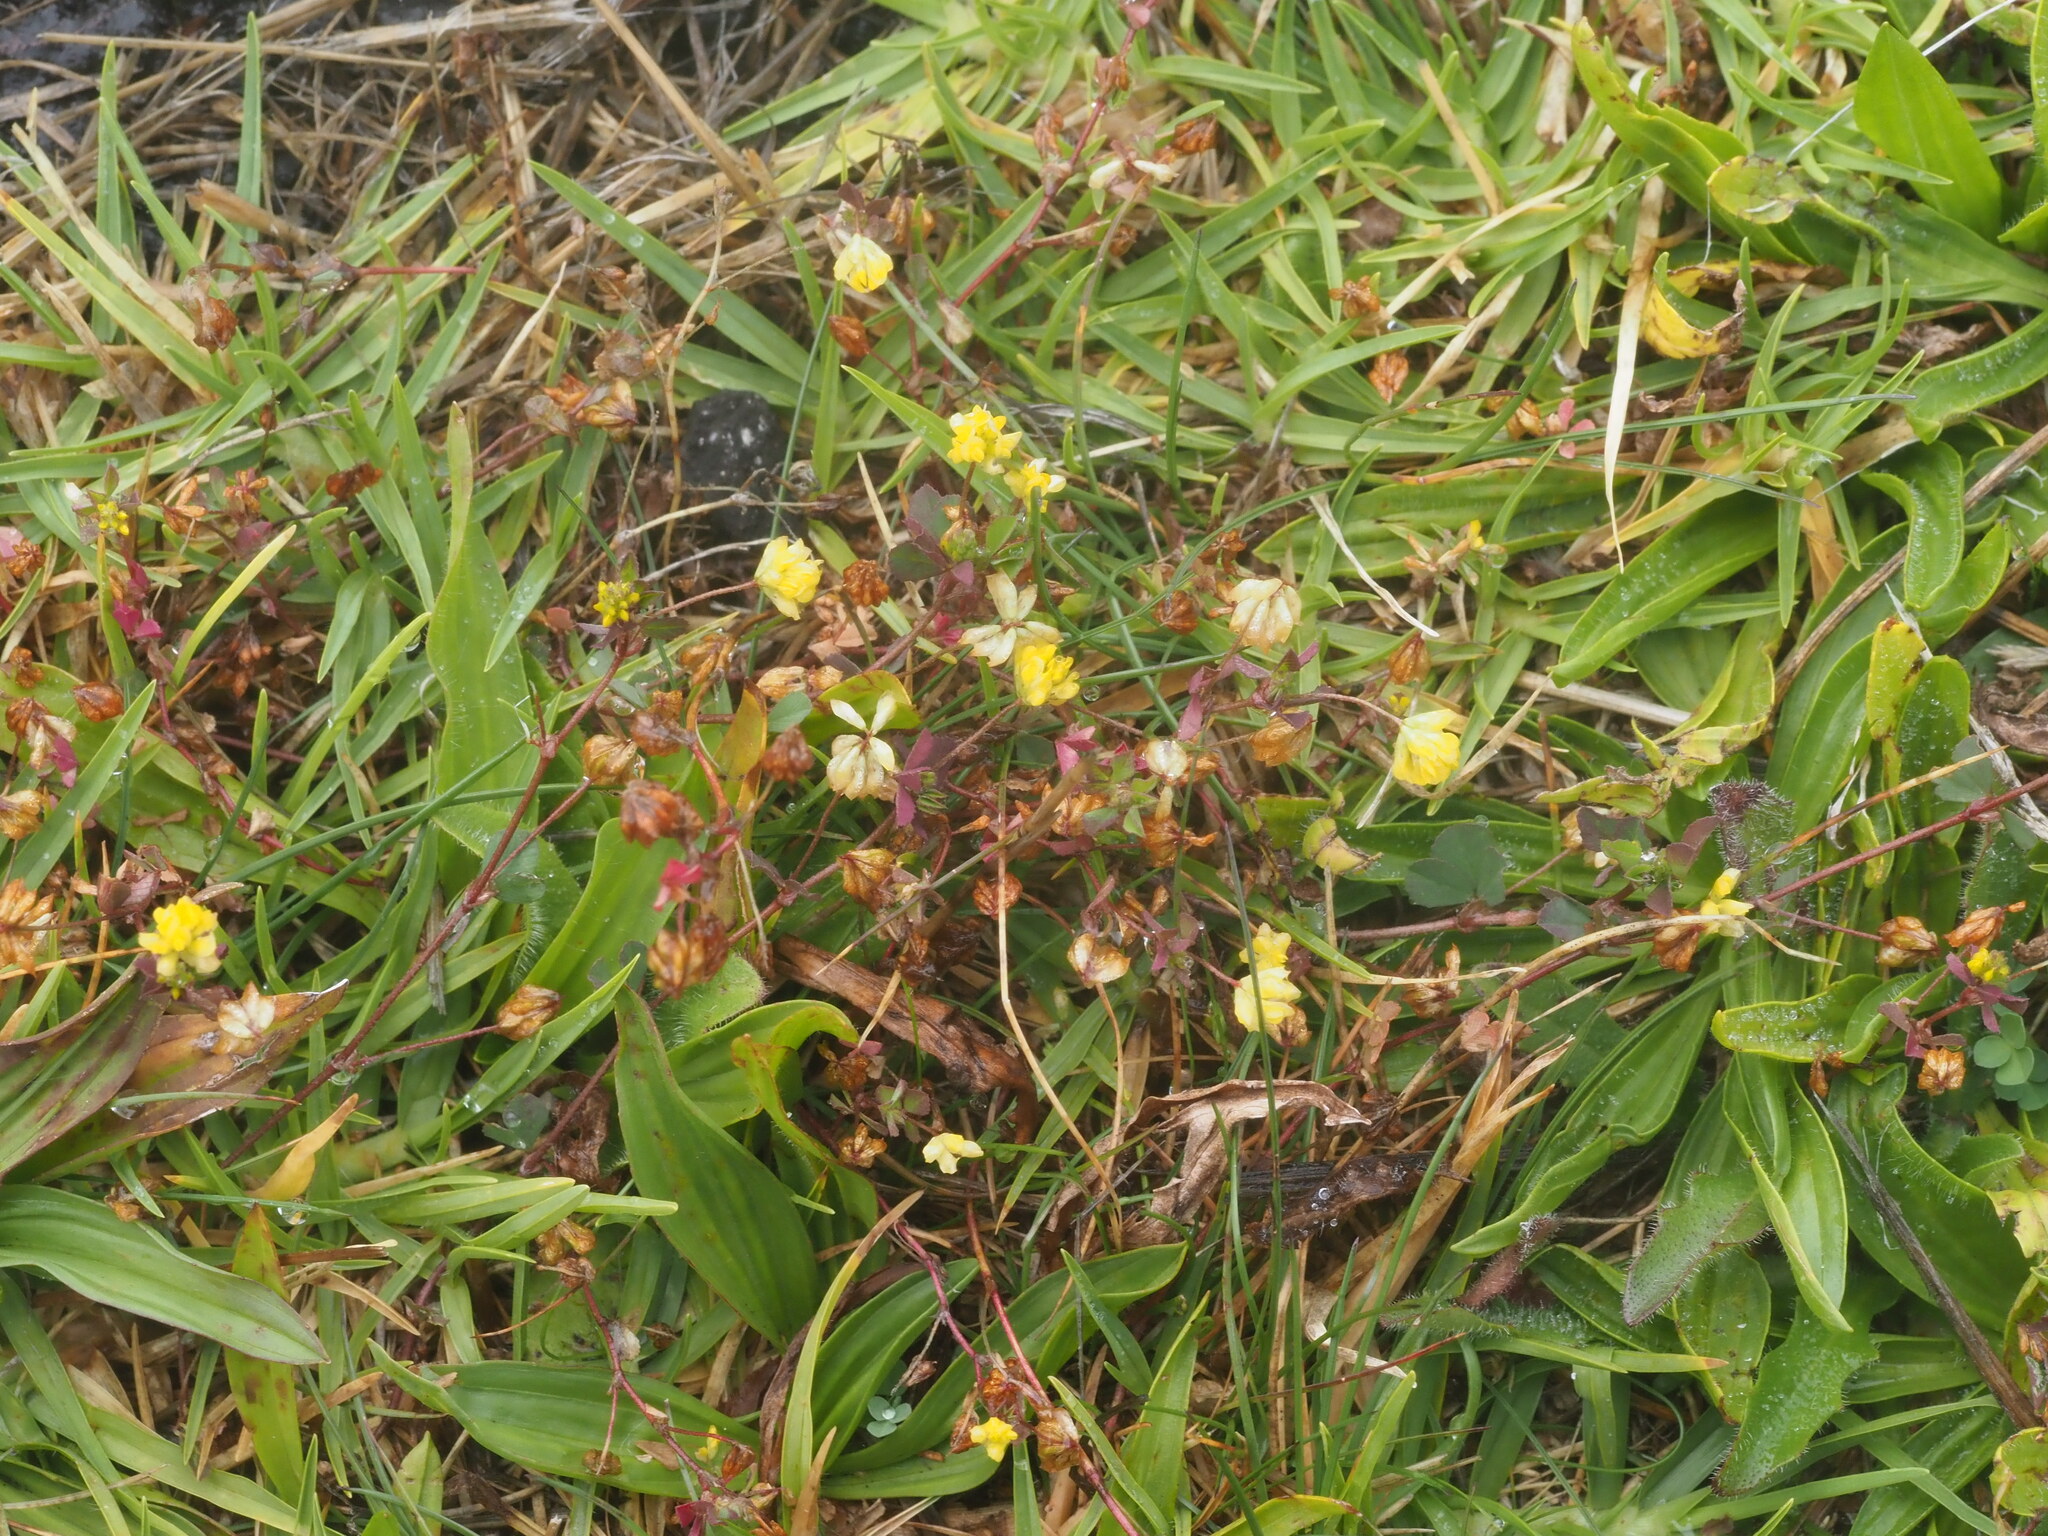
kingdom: Plantae
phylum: Tracheophyta
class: Magnoliopsida
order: Fabales
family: Fabaceae
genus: Trifolium
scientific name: Trifolium dubium
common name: Suckling clover
